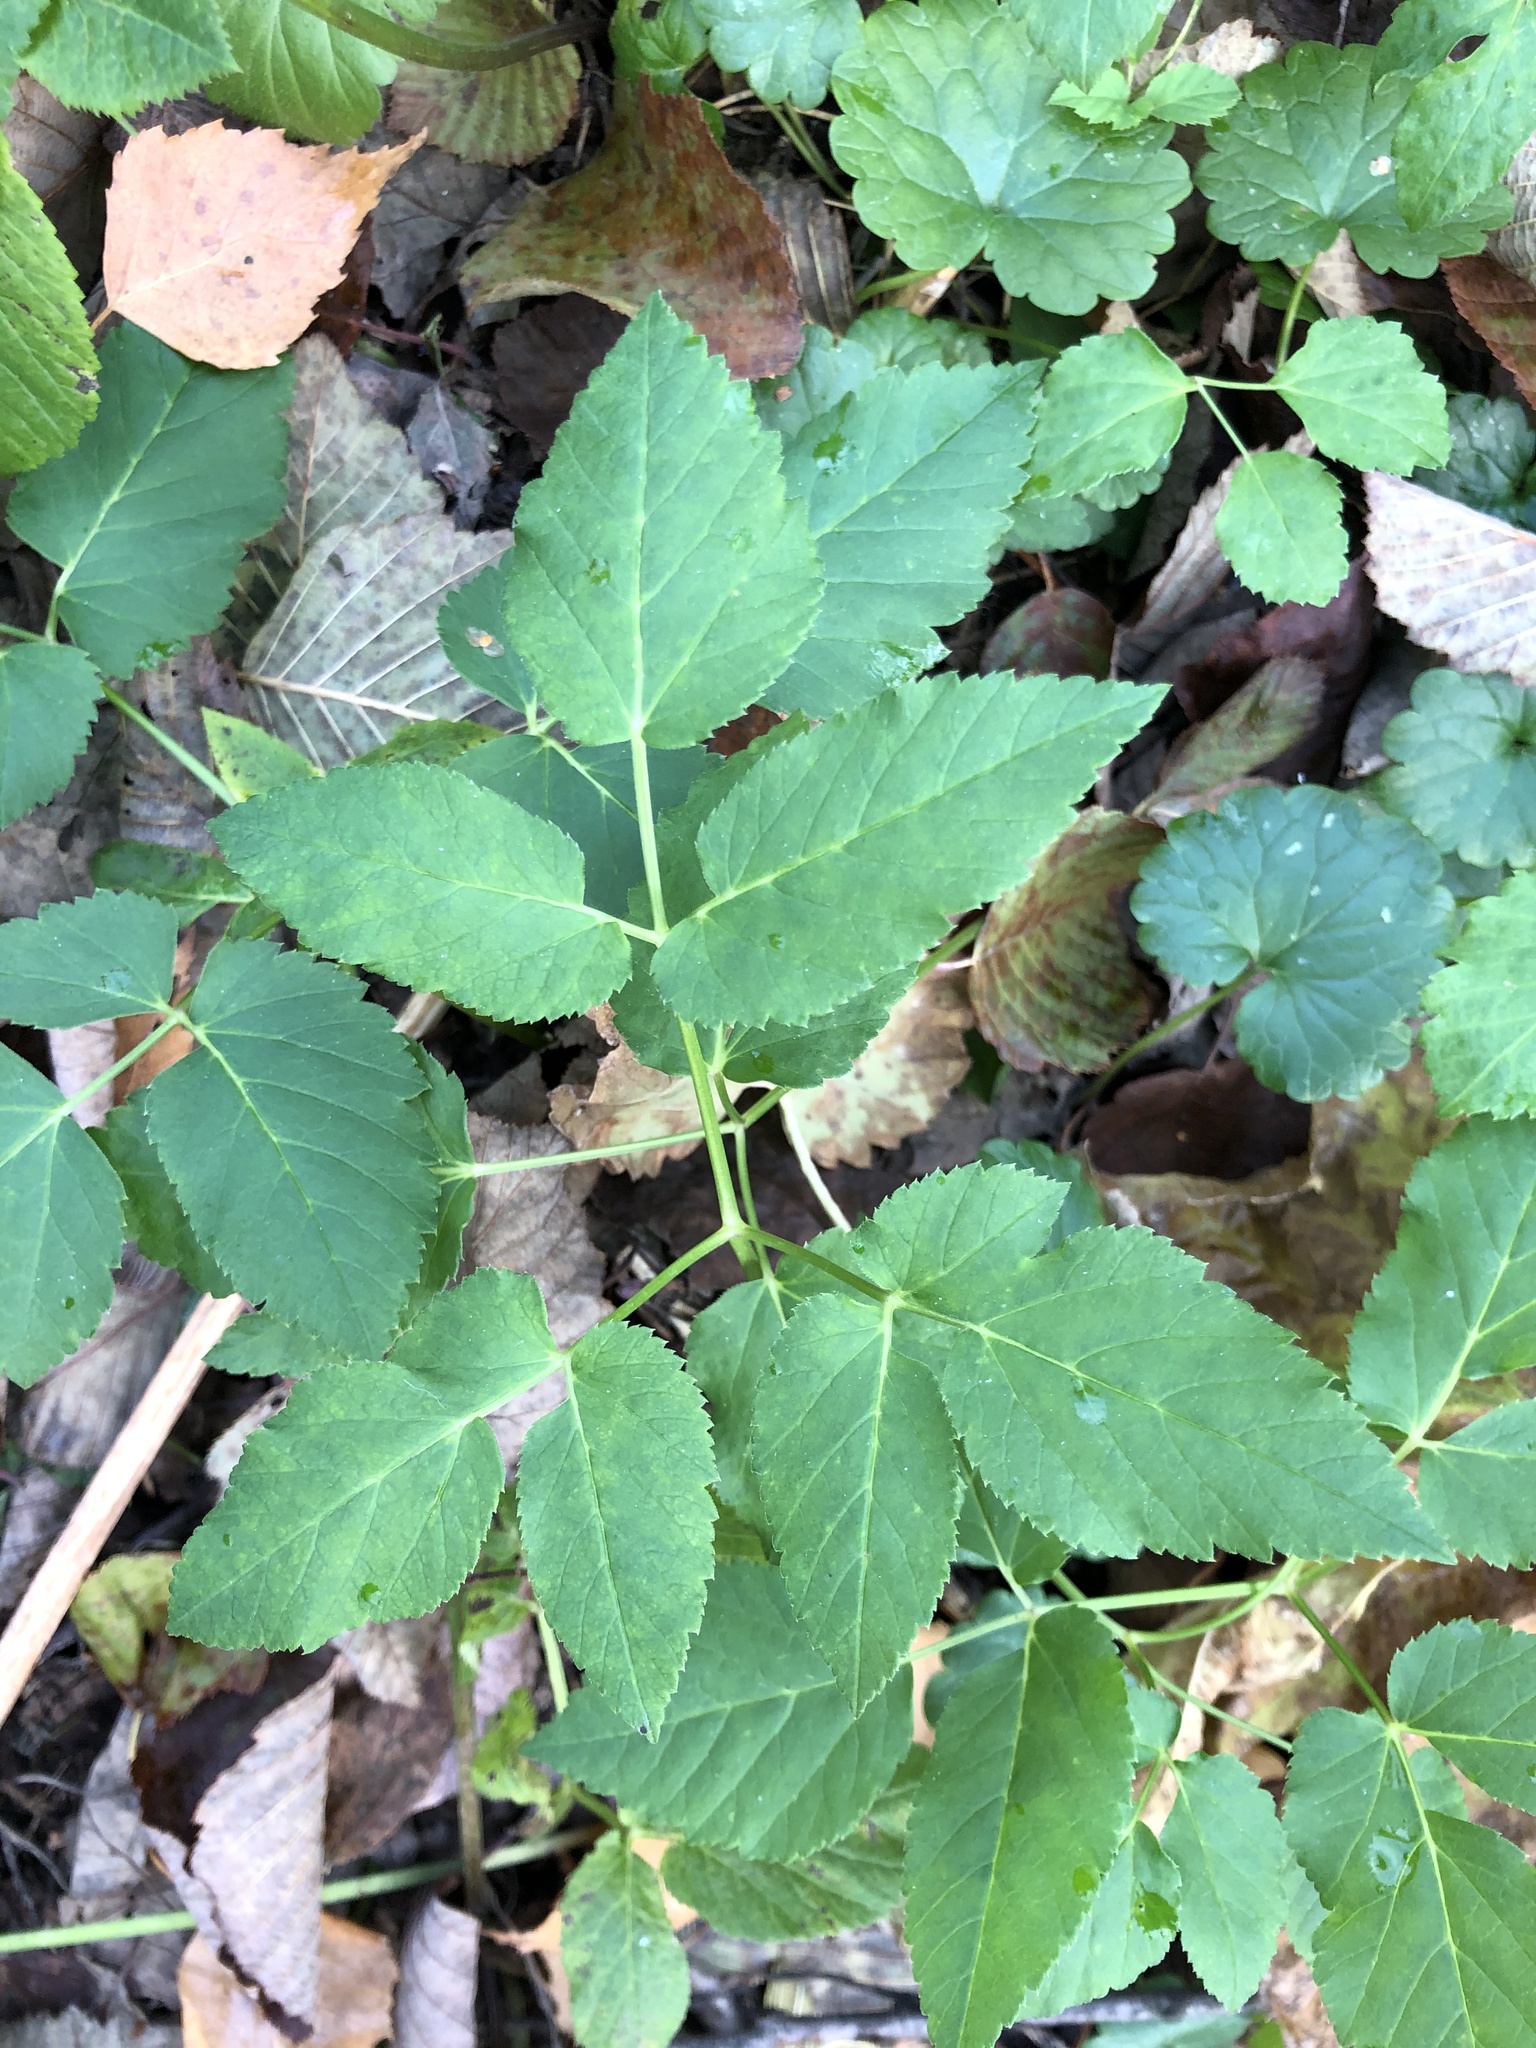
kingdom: Plantae
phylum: Tracheophyta
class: Magnoliopsida
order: Apiales
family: Apiaceae
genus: Aegopodium
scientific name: Aegopodium podagraria
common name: Ground-elder
